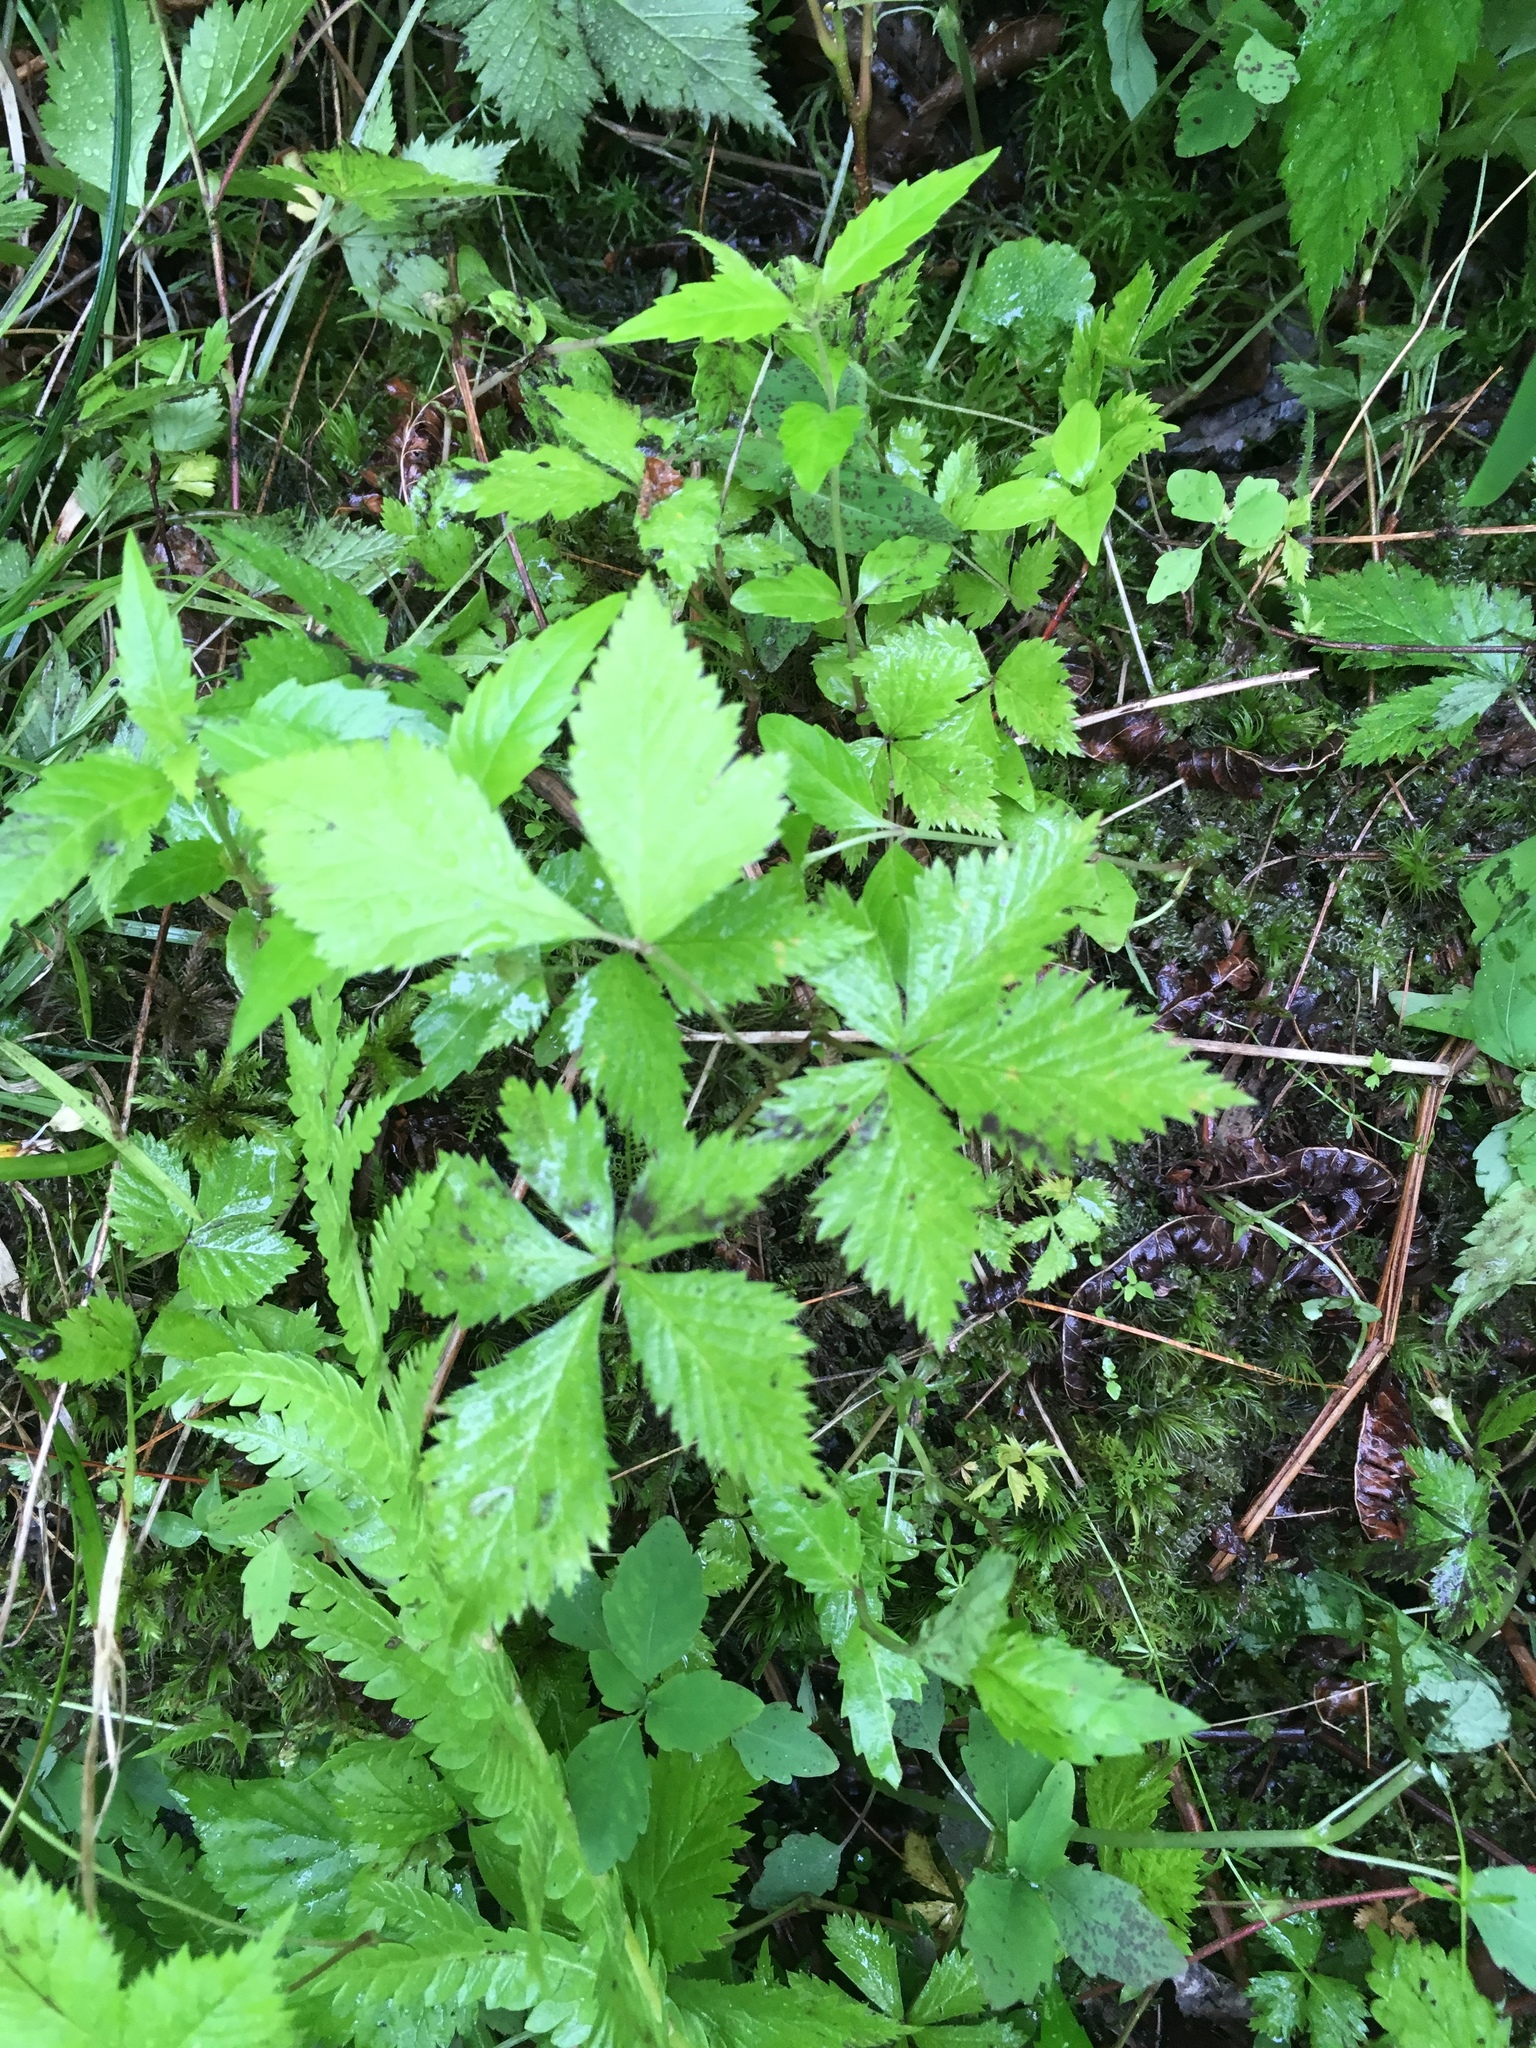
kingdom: Plantae
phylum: Tracheophyta
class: Magnoliopsida
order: Rosales
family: Rosaceae
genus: Rubus
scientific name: Rubus pubescens
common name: Dwarf raspberry
